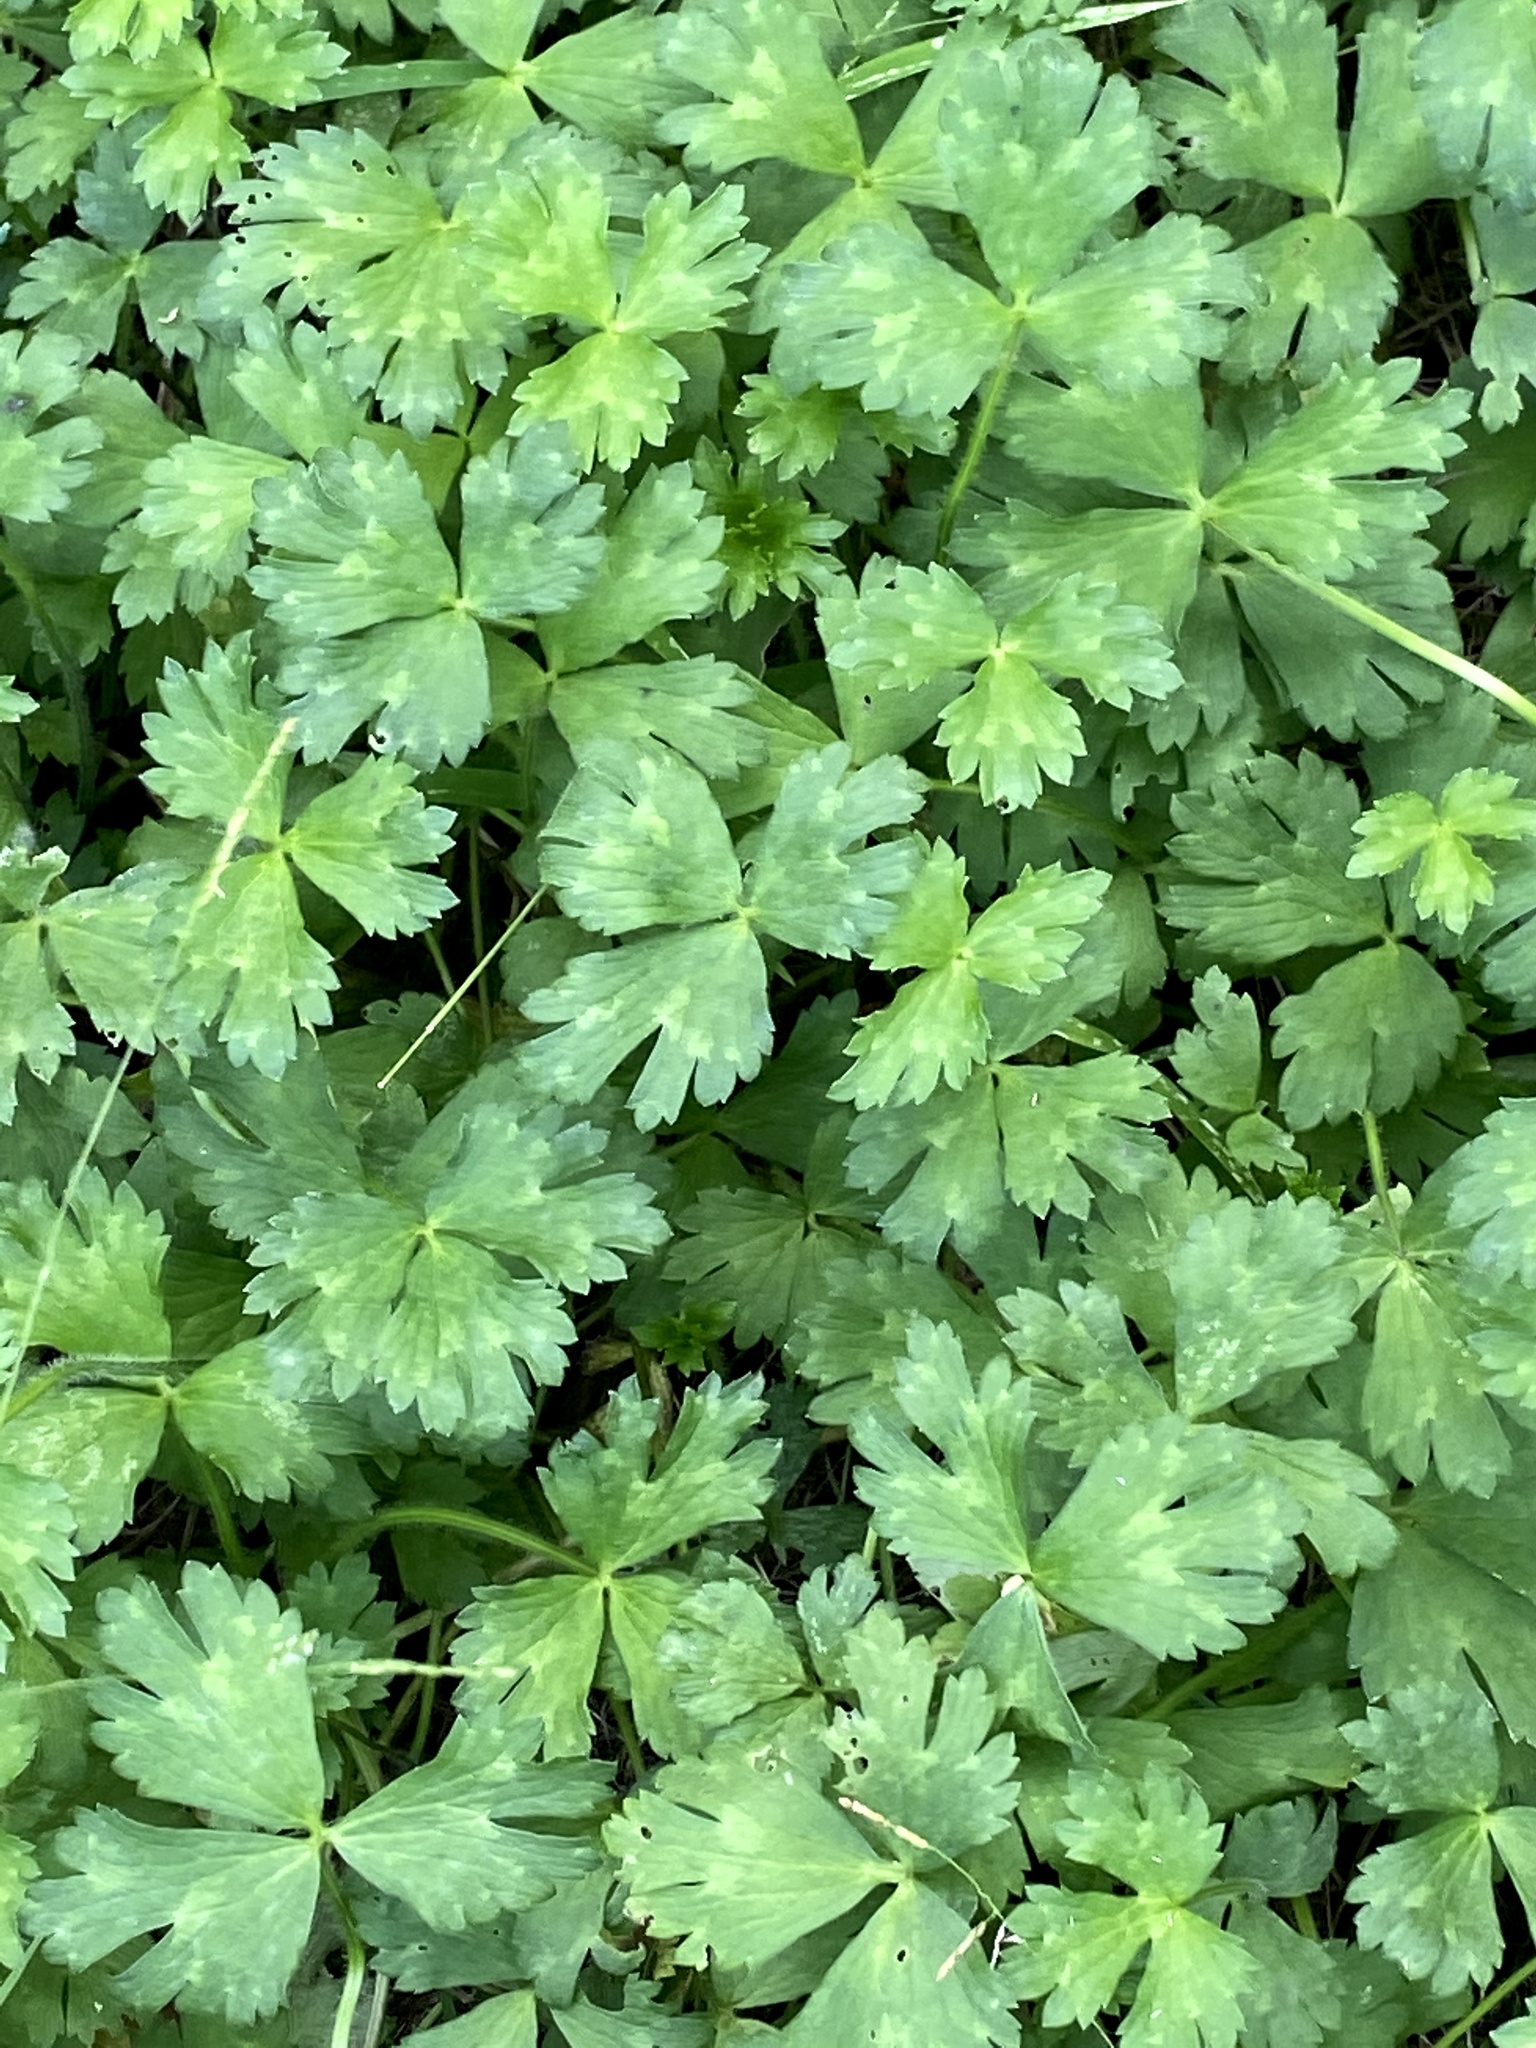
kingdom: Plantae
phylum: Tracheophyta
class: Magnoliopsida
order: Ranunculales
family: Ranunculaceae
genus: Ranunculus
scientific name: Ranunculus repens
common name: Creeping buttercup
